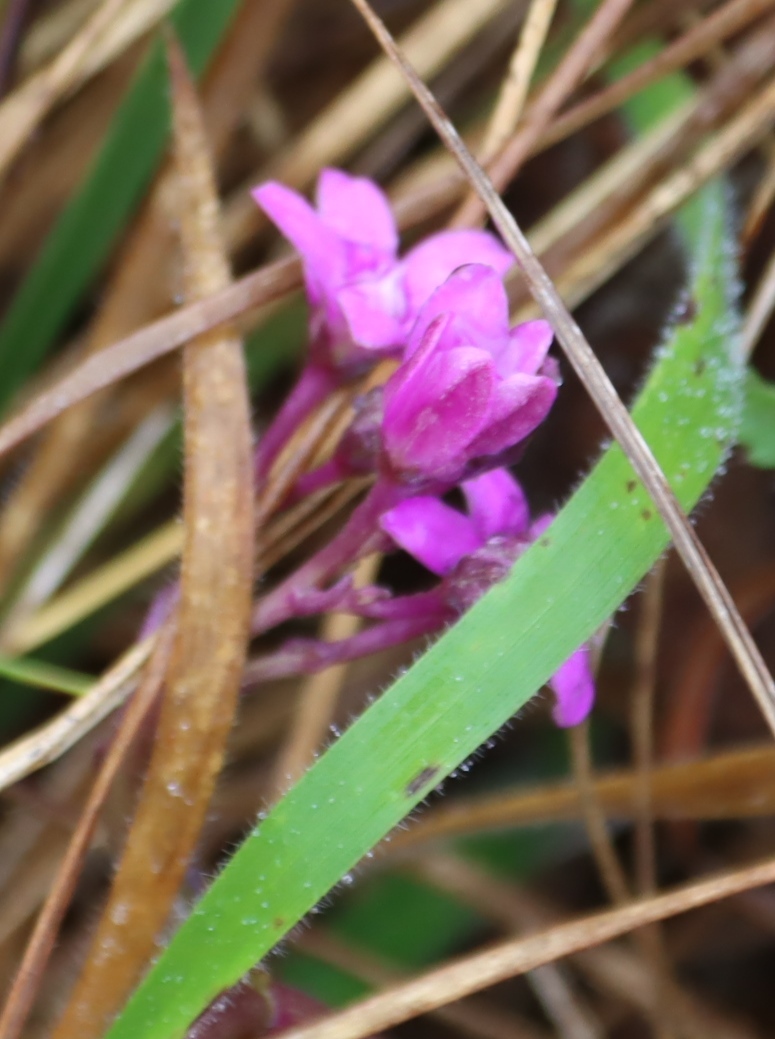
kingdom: Plantae
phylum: Tracheophyta
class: Magnoliopsida
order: Gentianales
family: Apocynaceae
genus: Raphionacme
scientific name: Raphionacme hirsuta
